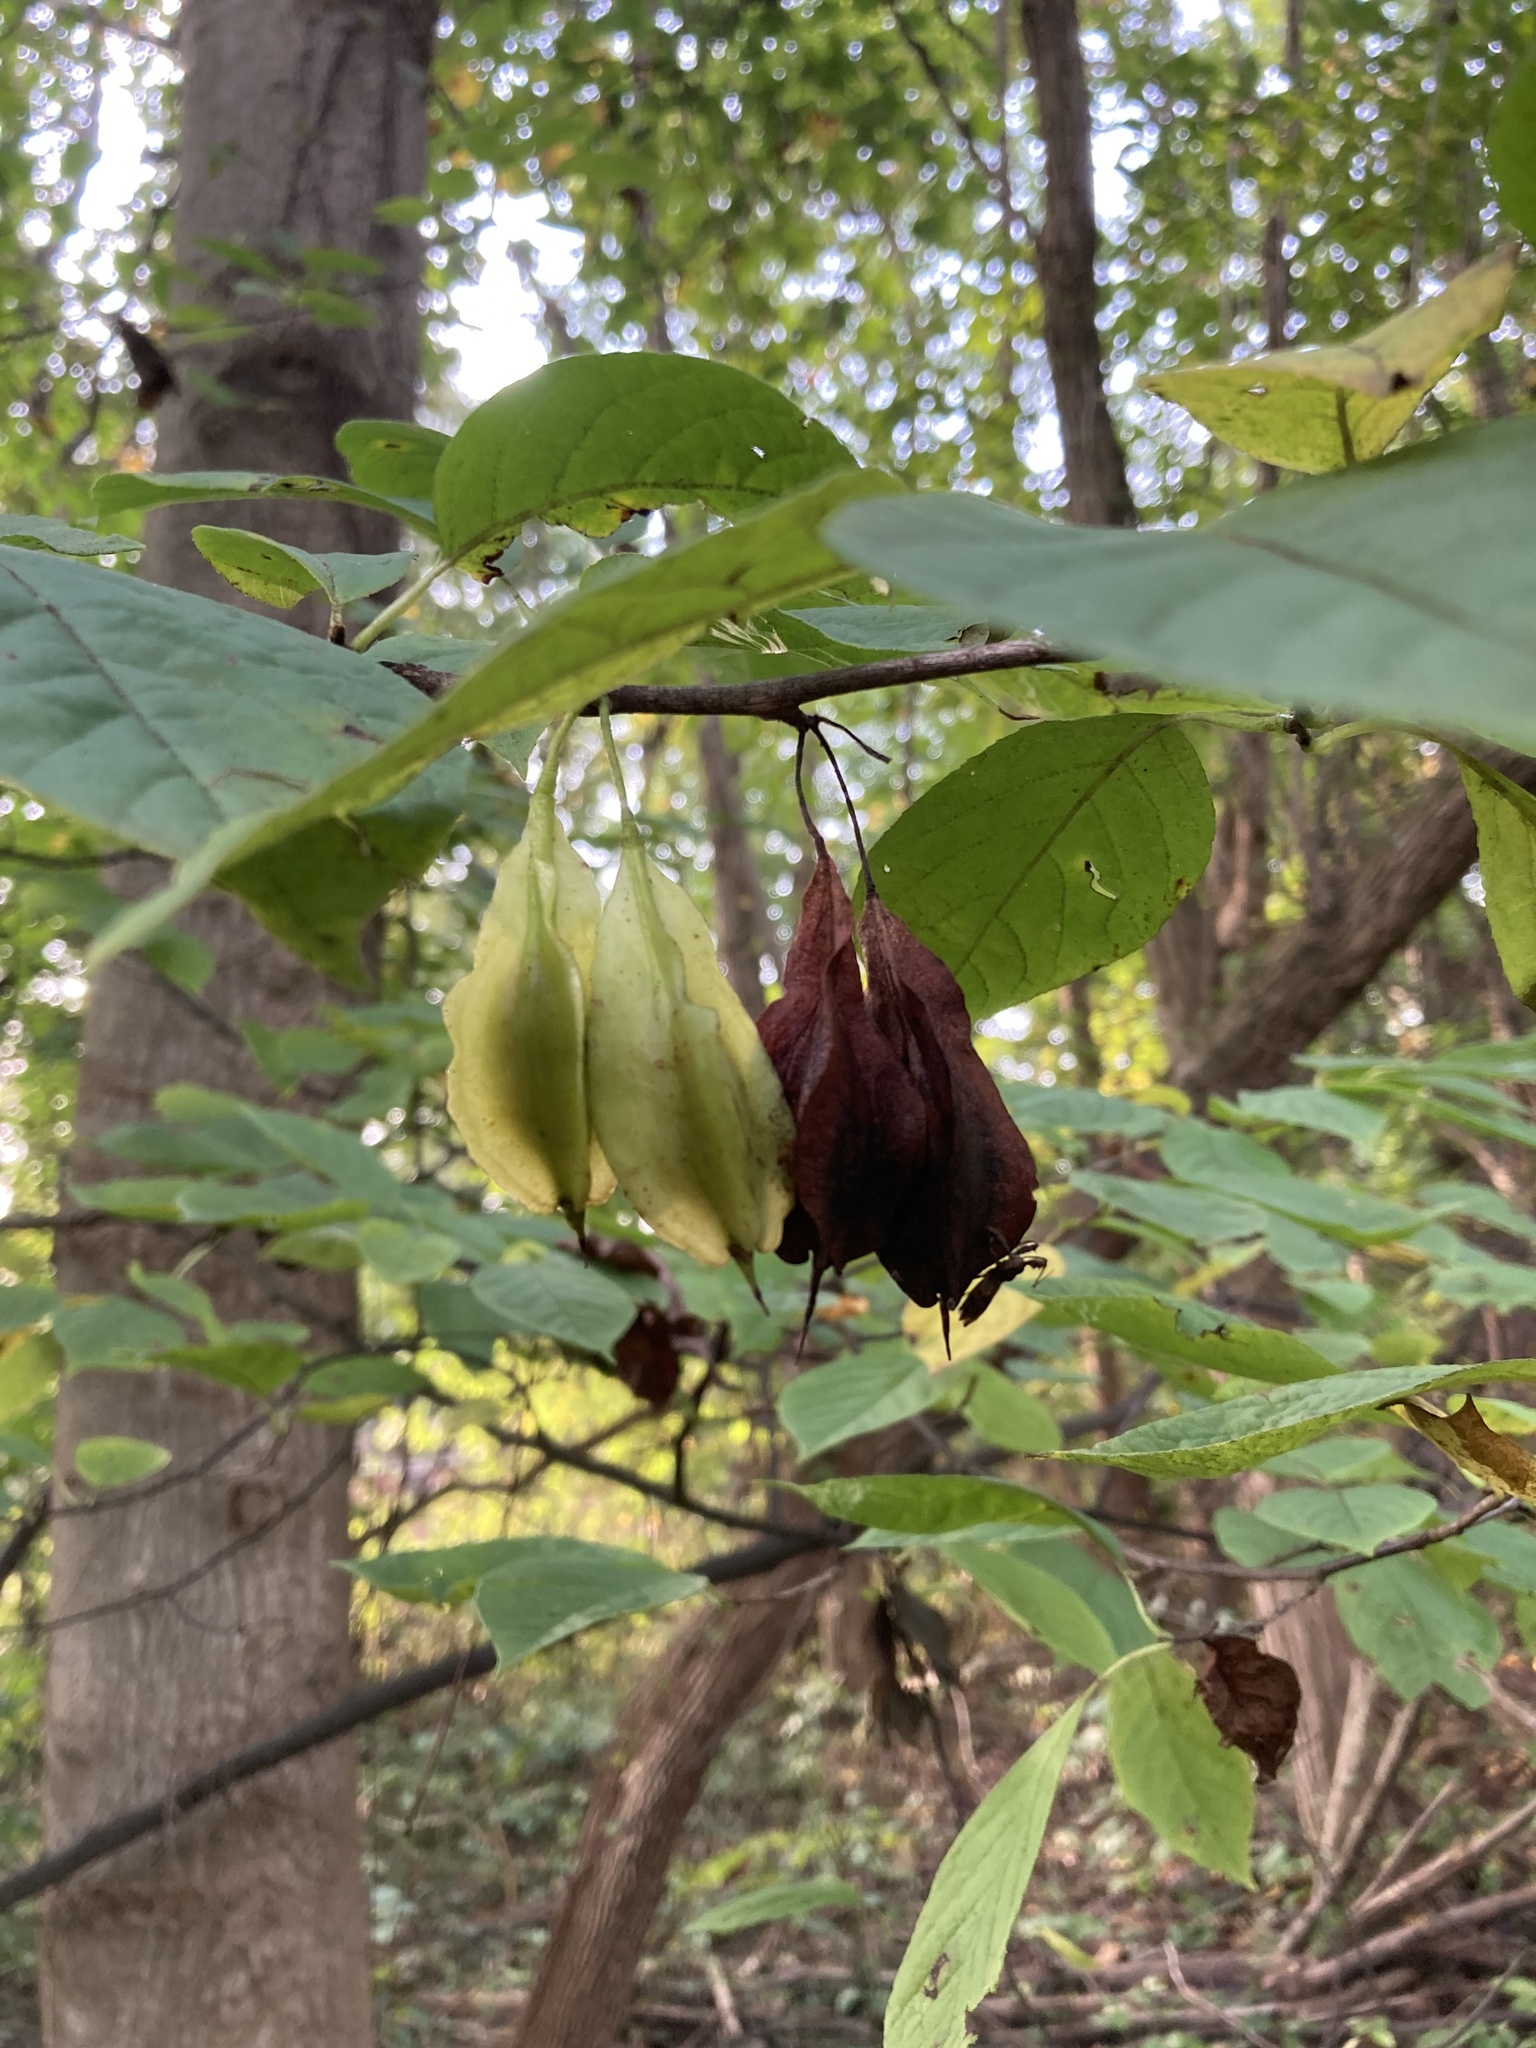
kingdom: Plantae
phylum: Tracheophyta
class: Magnoliopsida
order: Ericales
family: Styracaceae
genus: Halesia
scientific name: Halesia carolina
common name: Carolina silverbell
